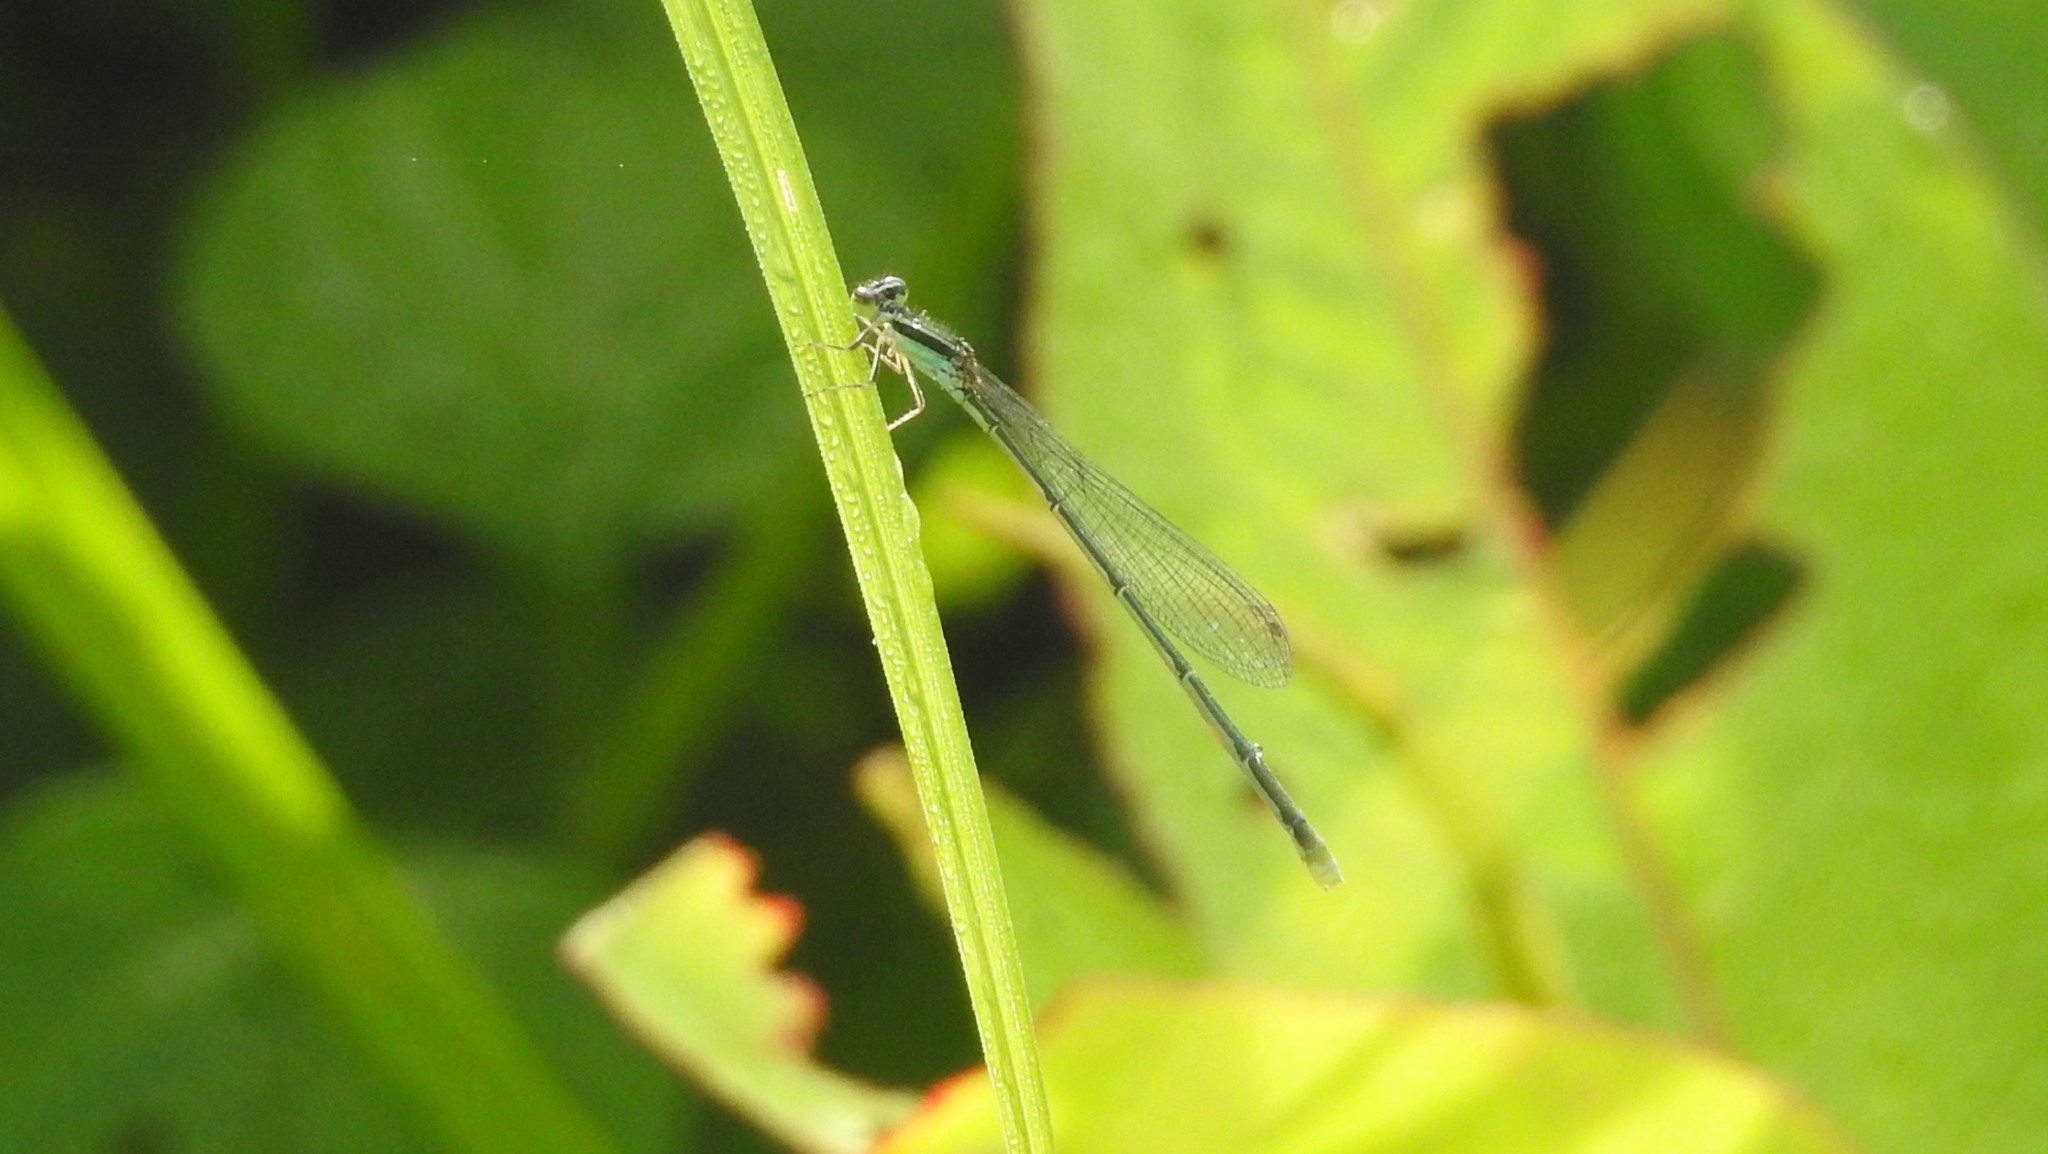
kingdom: Animalia
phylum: Arthropoda
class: Insecta
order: Odonata
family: Coenagrionidae
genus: Agriocnemis
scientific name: Agriocnemis pygmaea
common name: Pygmy wisp
